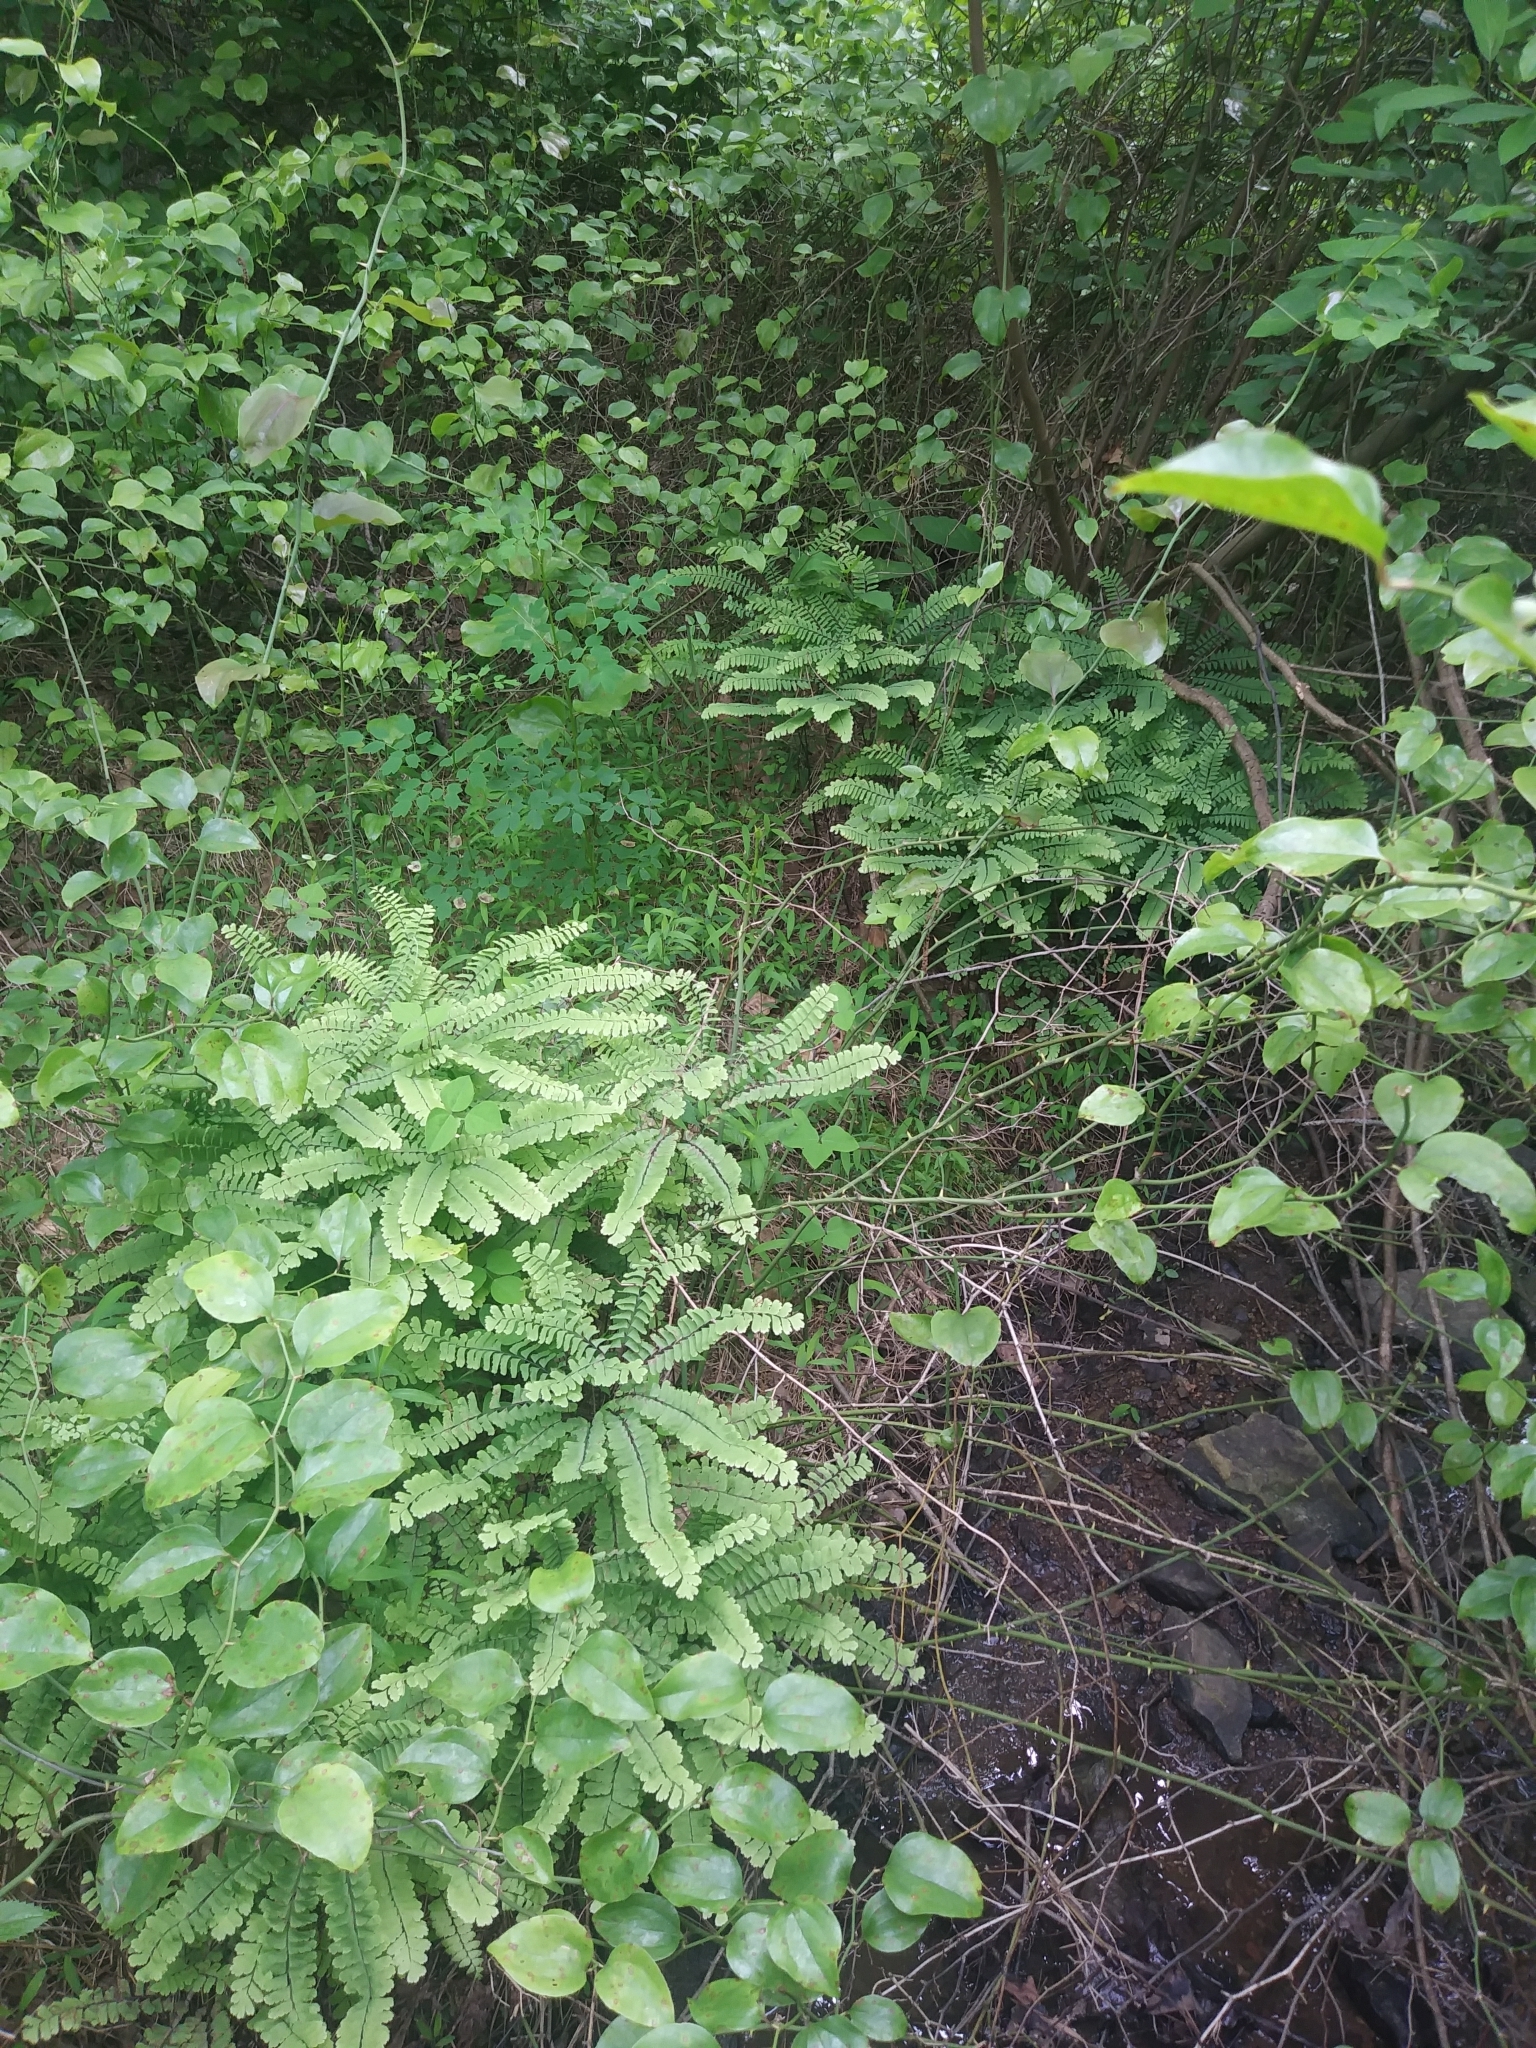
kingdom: Plantae
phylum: Tracheophyta
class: Polypodiopsida
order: Polypodiales
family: Pteridaceae
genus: Adiantum
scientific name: Adiantum pedatum
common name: Five-finger fern
